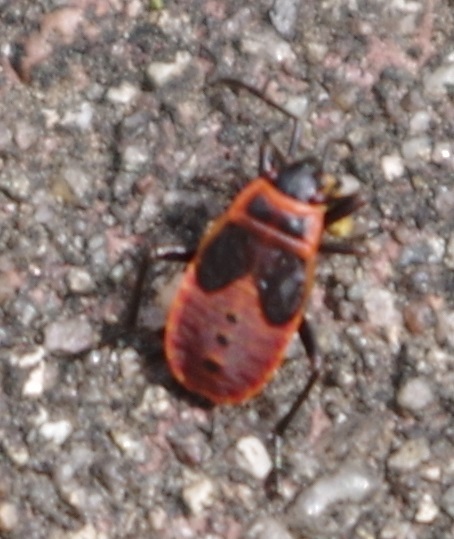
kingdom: Animalia
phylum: Arthropoda
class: Insecta
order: Hemiptera
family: Pyrrhocoridae
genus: Pyrrhocoris
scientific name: Pyrrhocoris apterus
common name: Firebug
